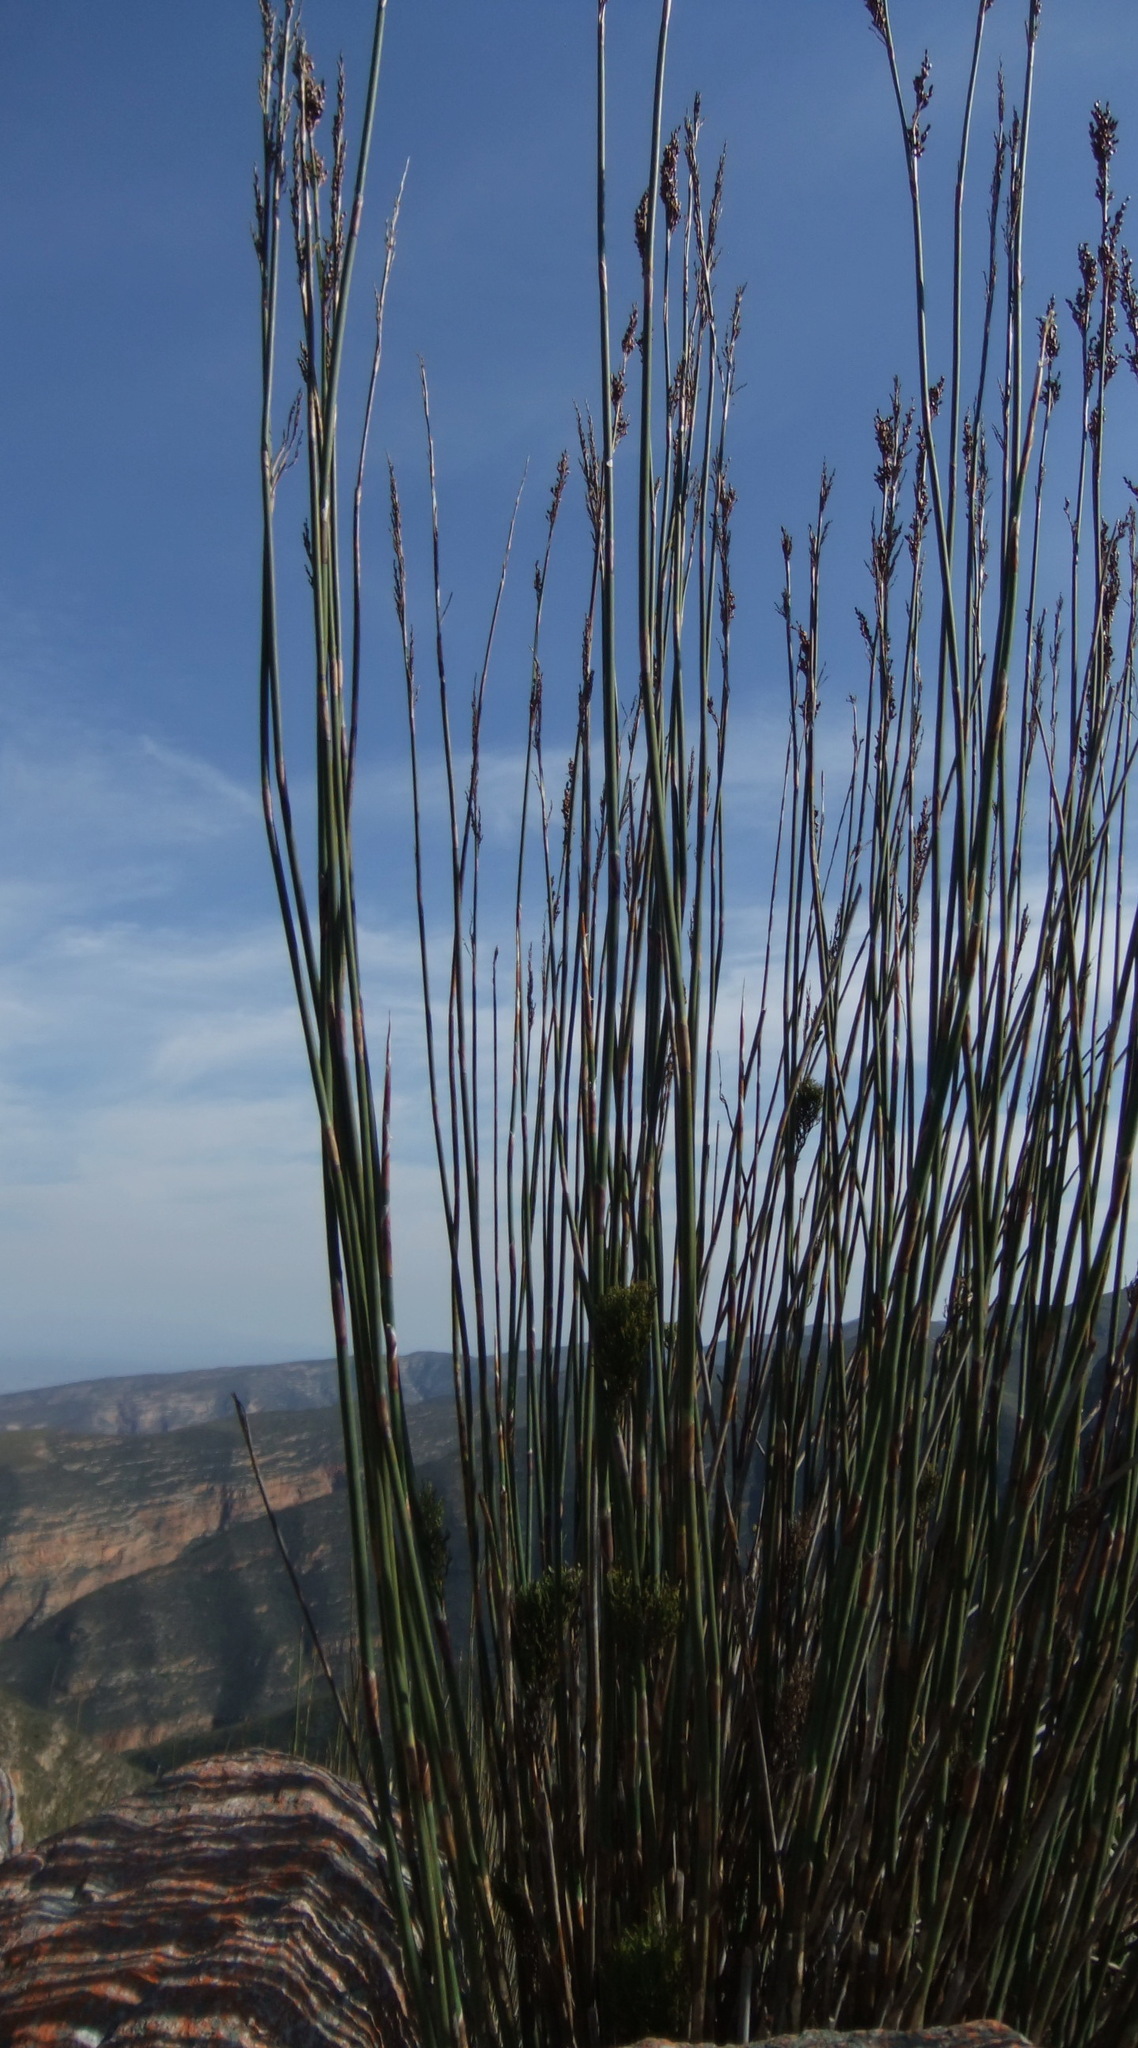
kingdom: Plantae
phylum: Tracheophyta
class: Liliopsida
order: Poales
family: Restionaceae
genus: Rhodocoma
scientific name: Rhodocoma arida
